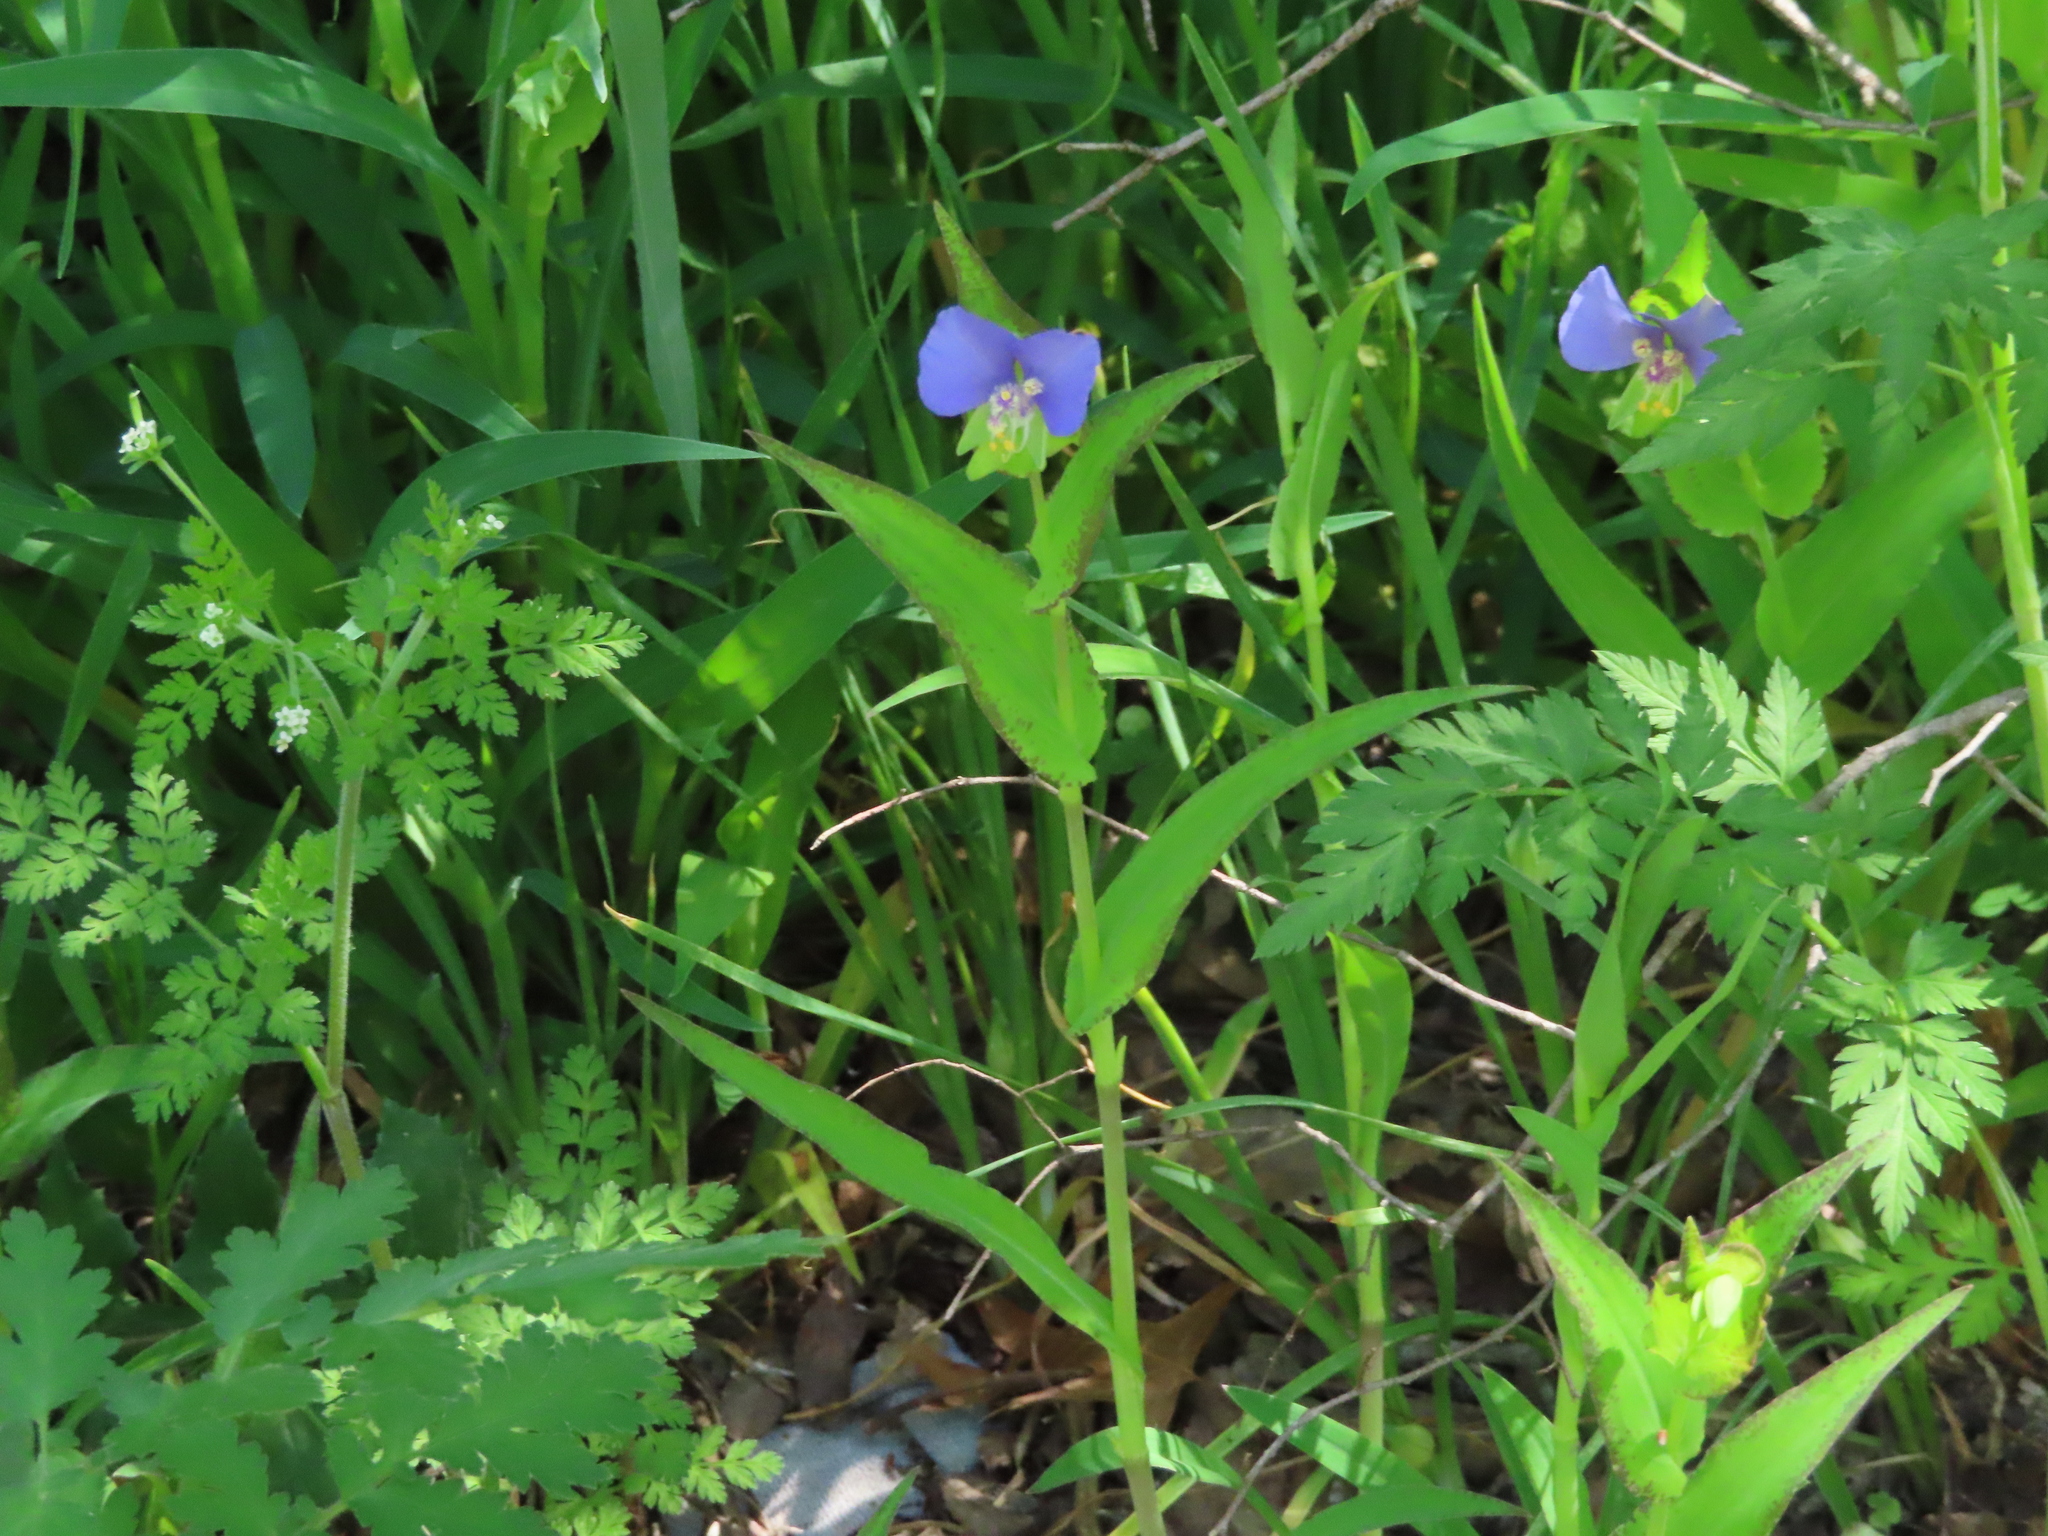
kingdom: Plantae
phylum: Tracheophyta
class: Liliopsida
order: Commelinales
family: Commelinaceae
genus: Tinantia
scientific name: Tinantia anomala
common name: False dayflower
